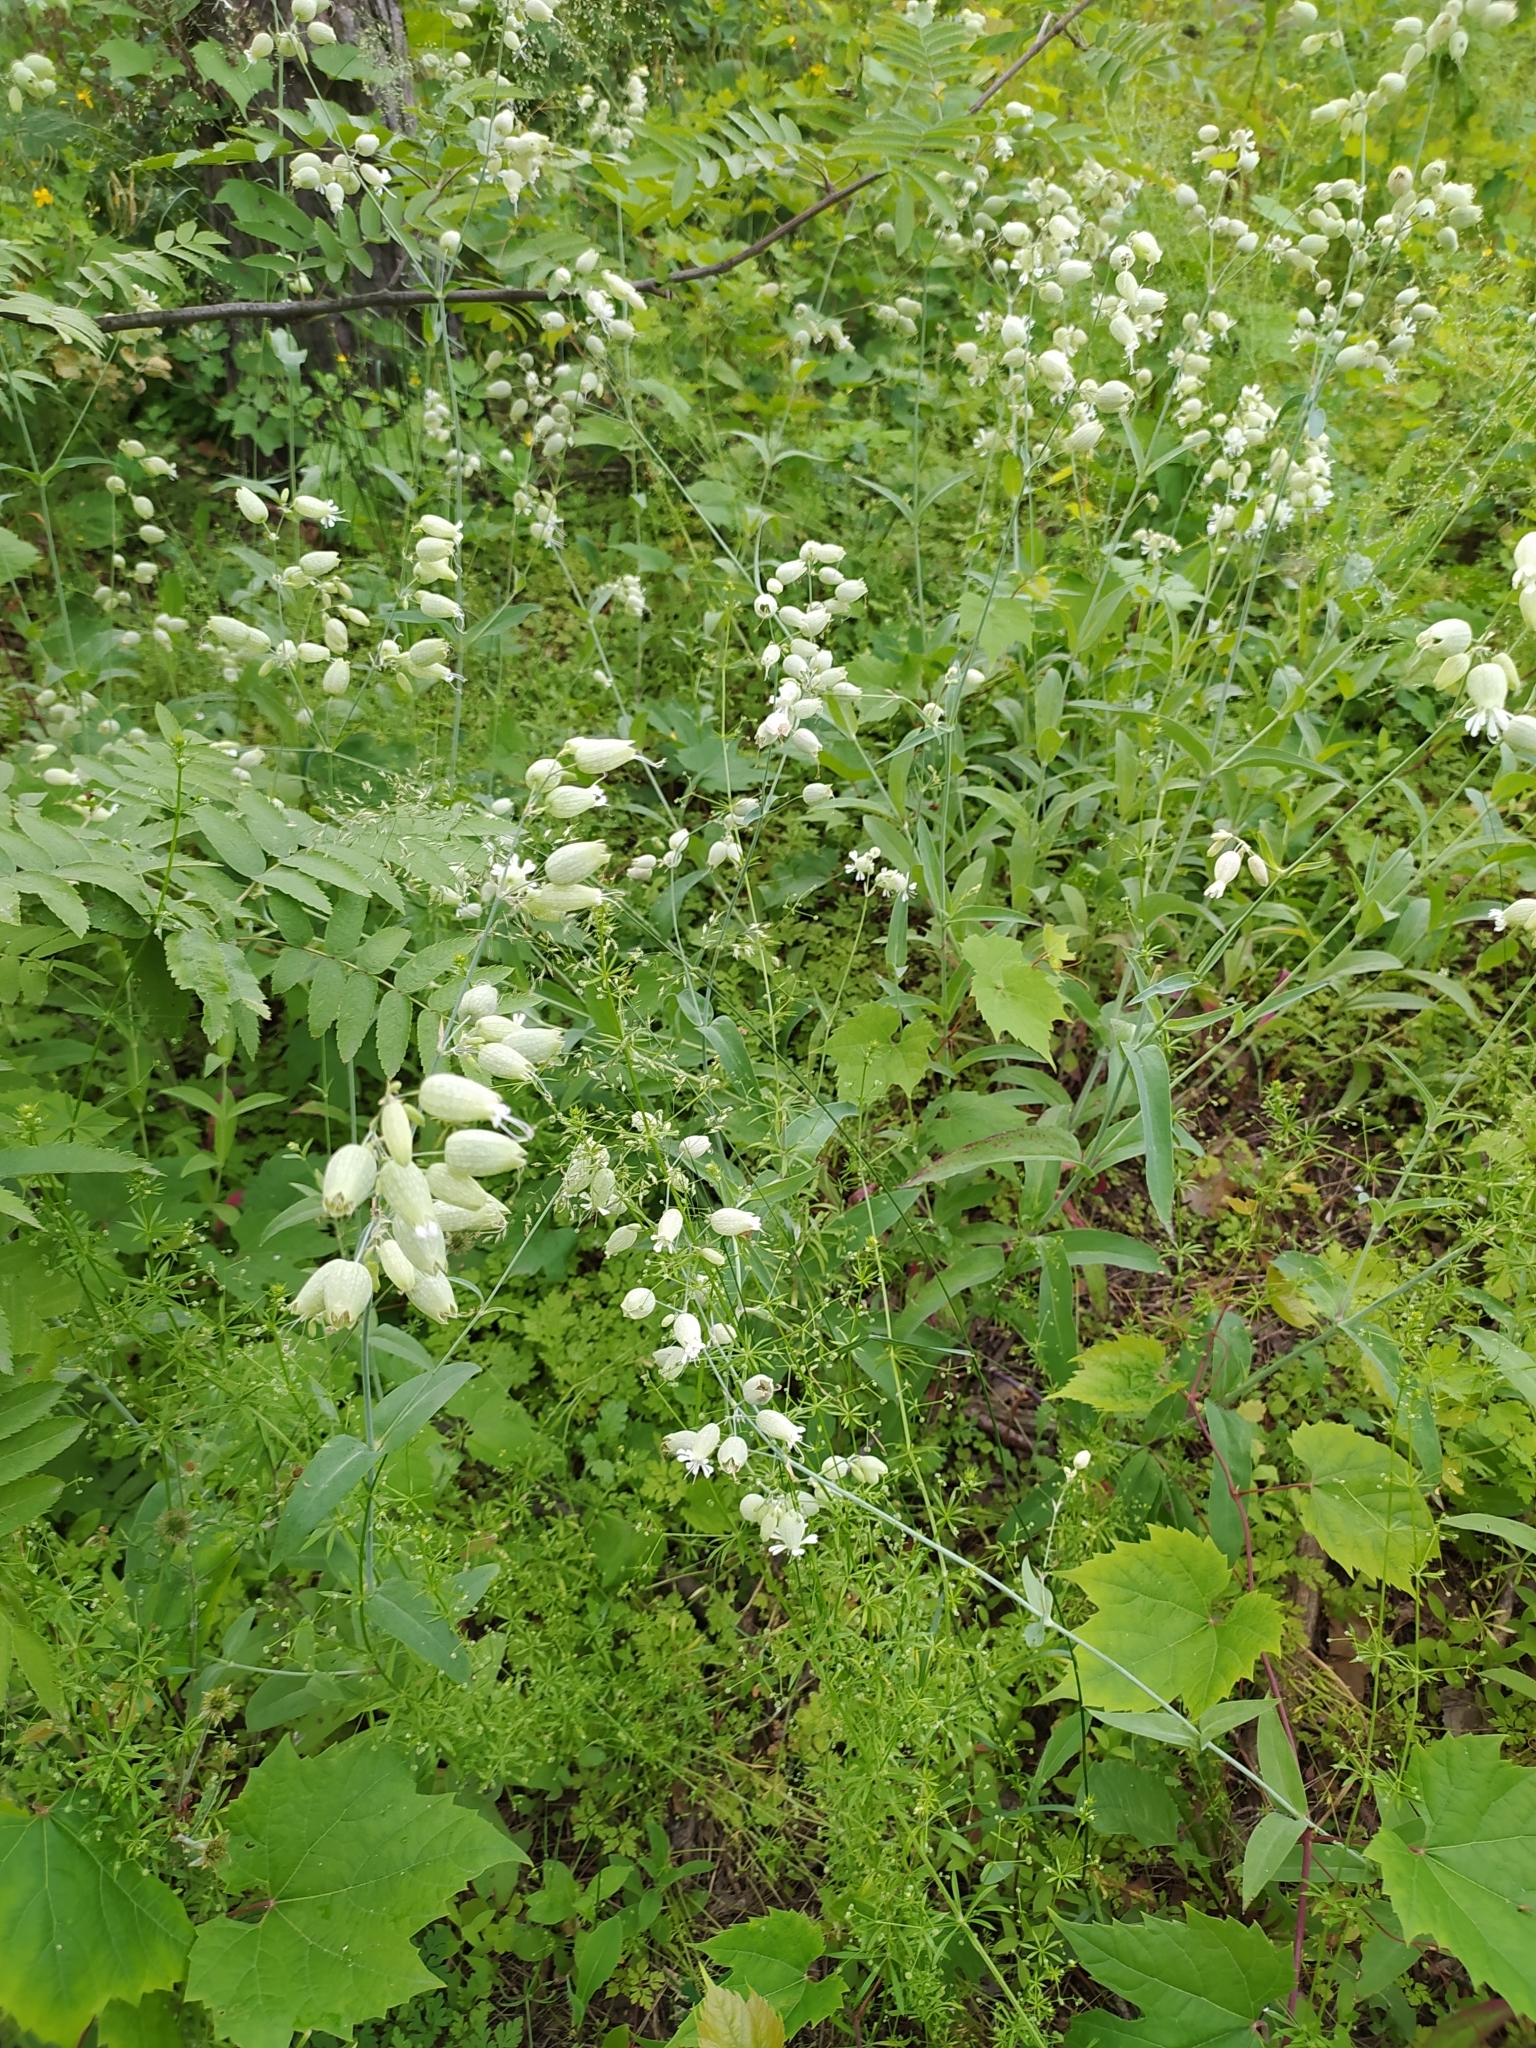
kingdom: Plantae
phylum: Tracheophyta
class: Magnoliopsida
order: Caryophyllales
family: Caryophyllaceae
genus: Silene
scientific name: Silene vulgaris
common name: Bladder campion
